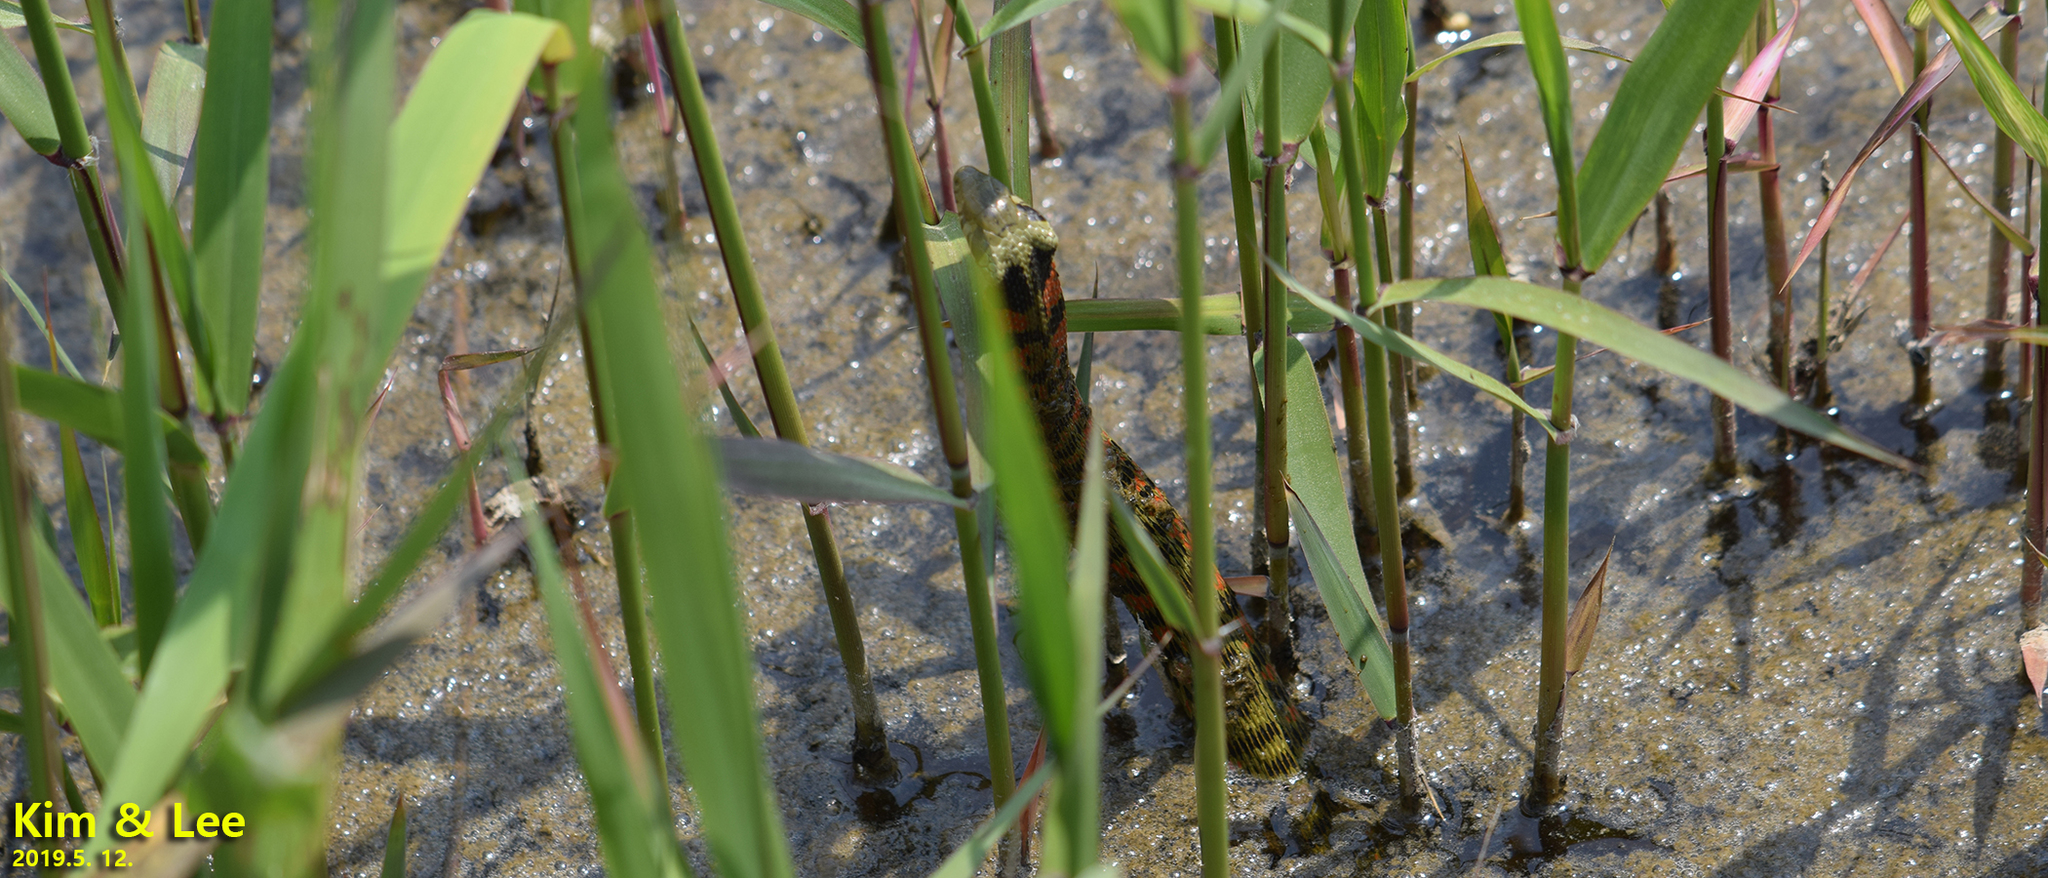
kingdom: Animalia
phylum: Chordata
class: Squamata
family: Colubridae
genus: Rhabdophis
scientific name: Rhabdophis tigrinus
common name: Tiger keelback
